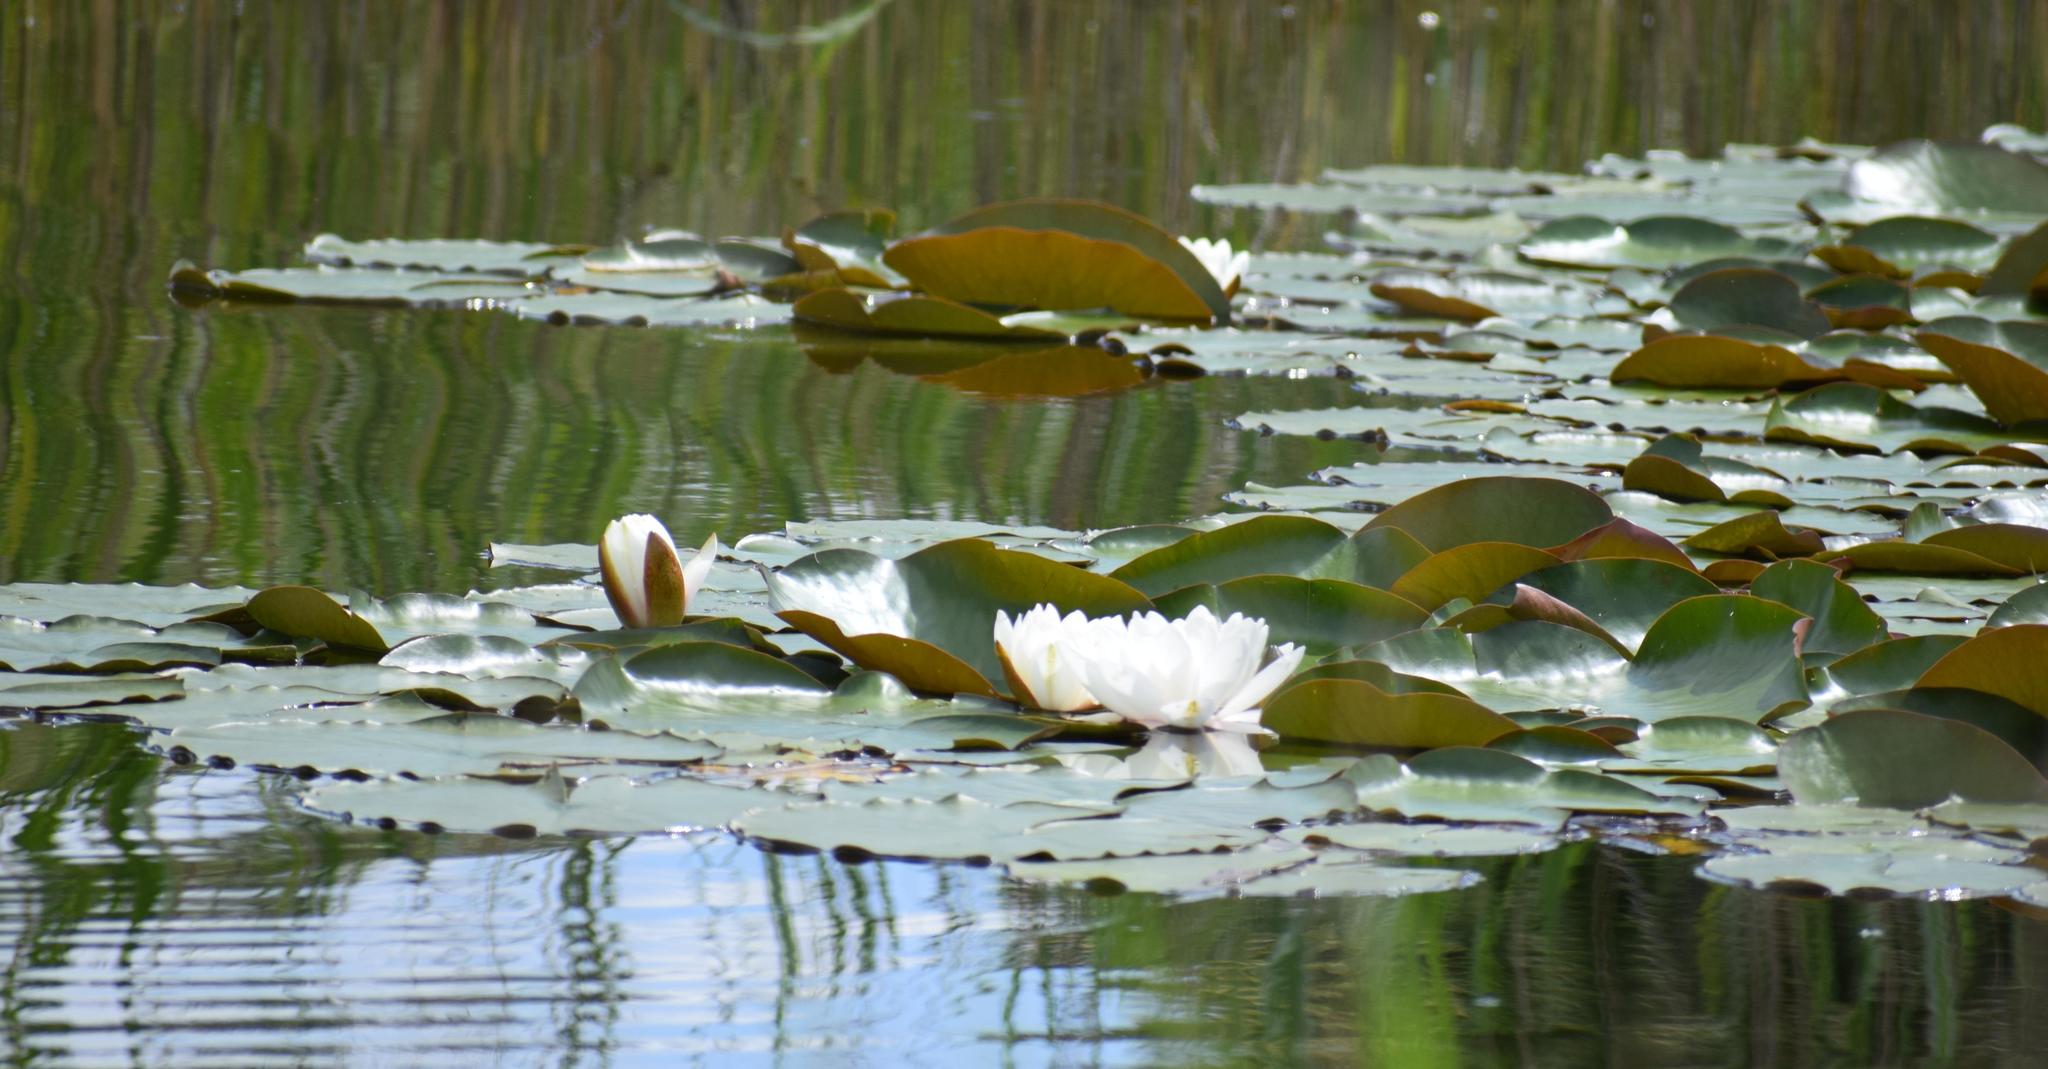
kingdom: Plantae
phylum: Tracheophyta
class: Magnoliopsida
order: Nymphaeales
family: Nymphaeaceae
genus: Nymphaea
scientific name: Nymphaea alba
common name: White water-lily
